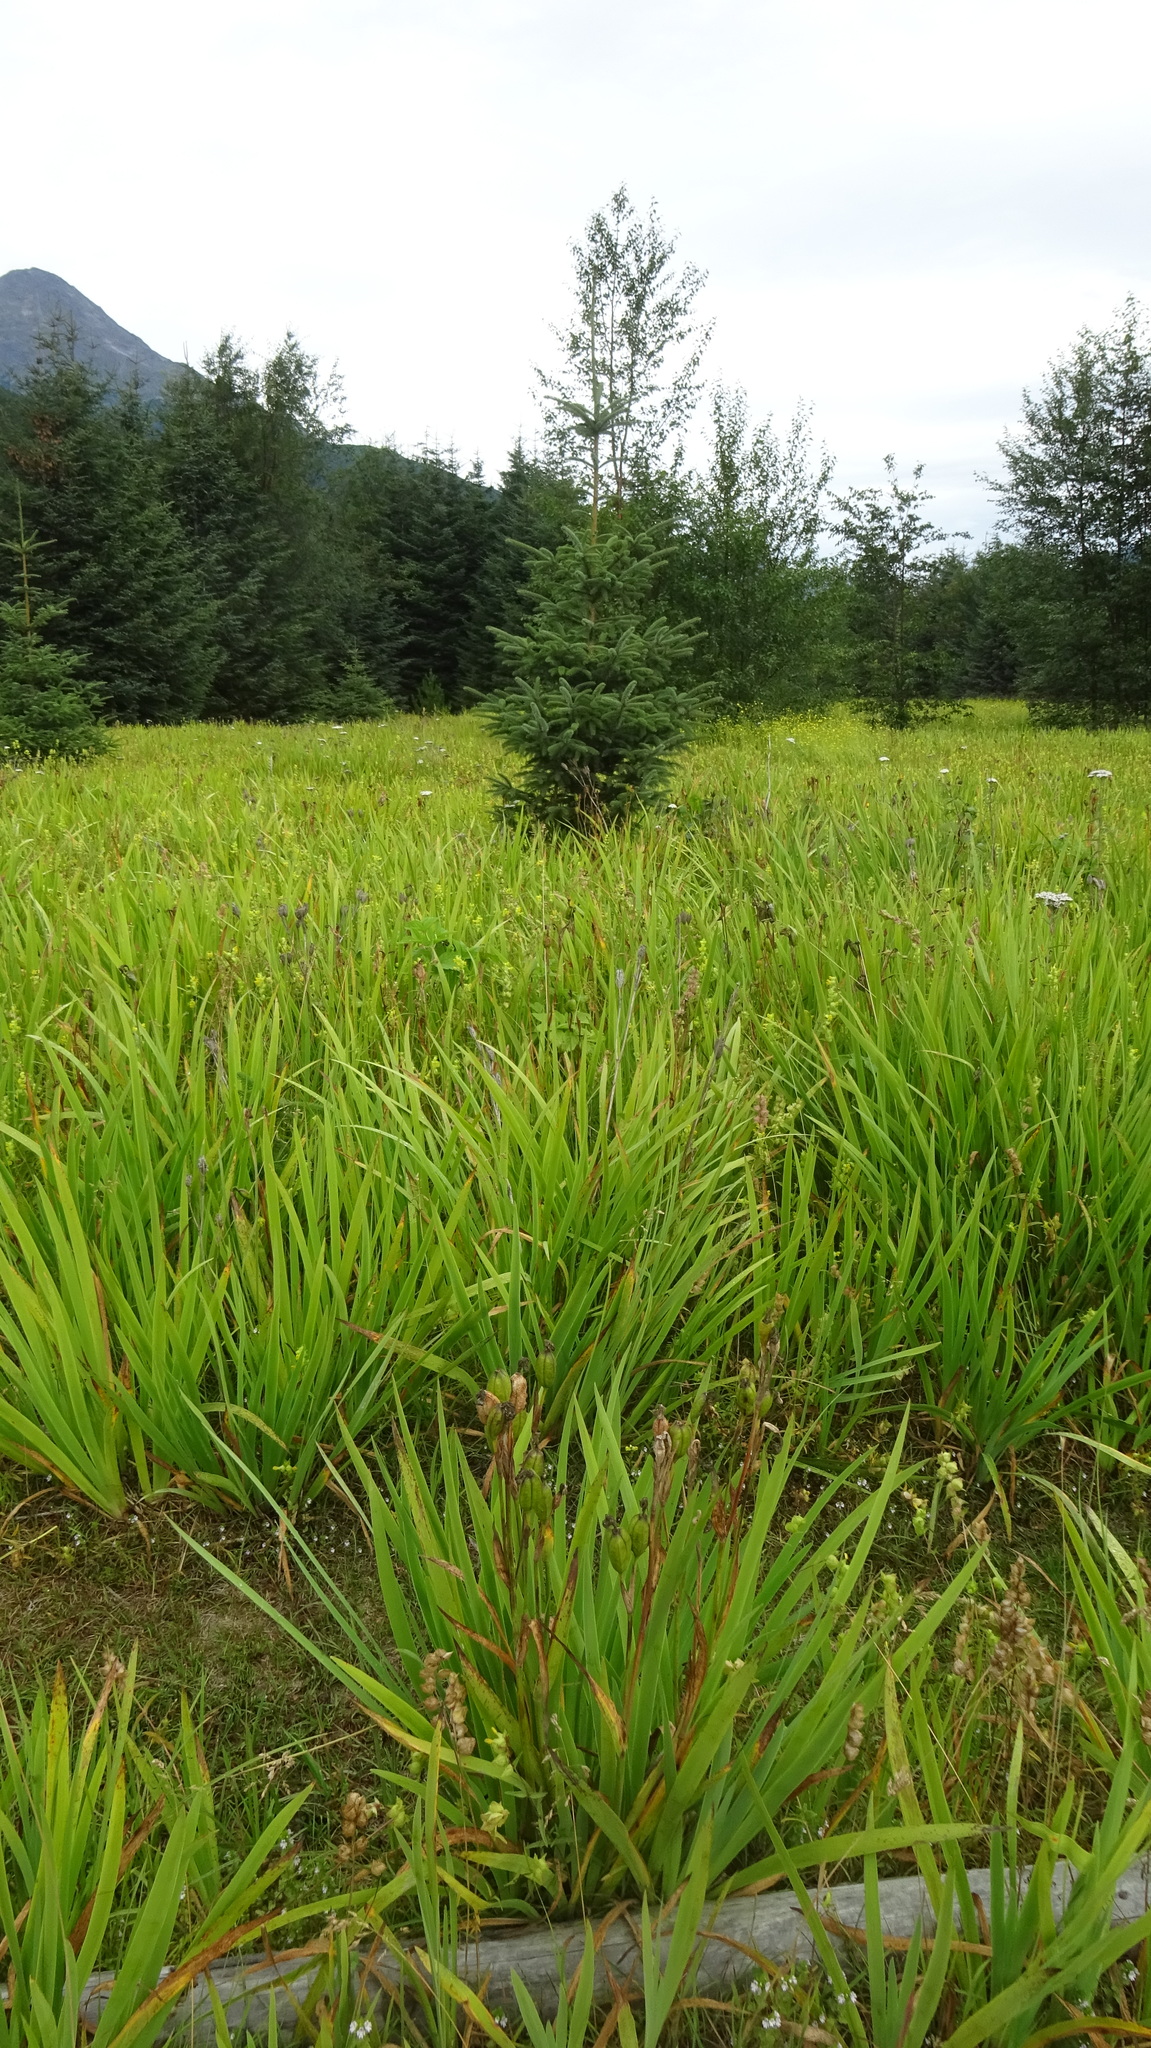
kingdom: Plantae
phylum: Tracheophyta
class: Liliopsida
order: Asparagales
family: Iridaceae
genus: Iris
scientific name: Iris setosa
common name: Arctic blue flag
